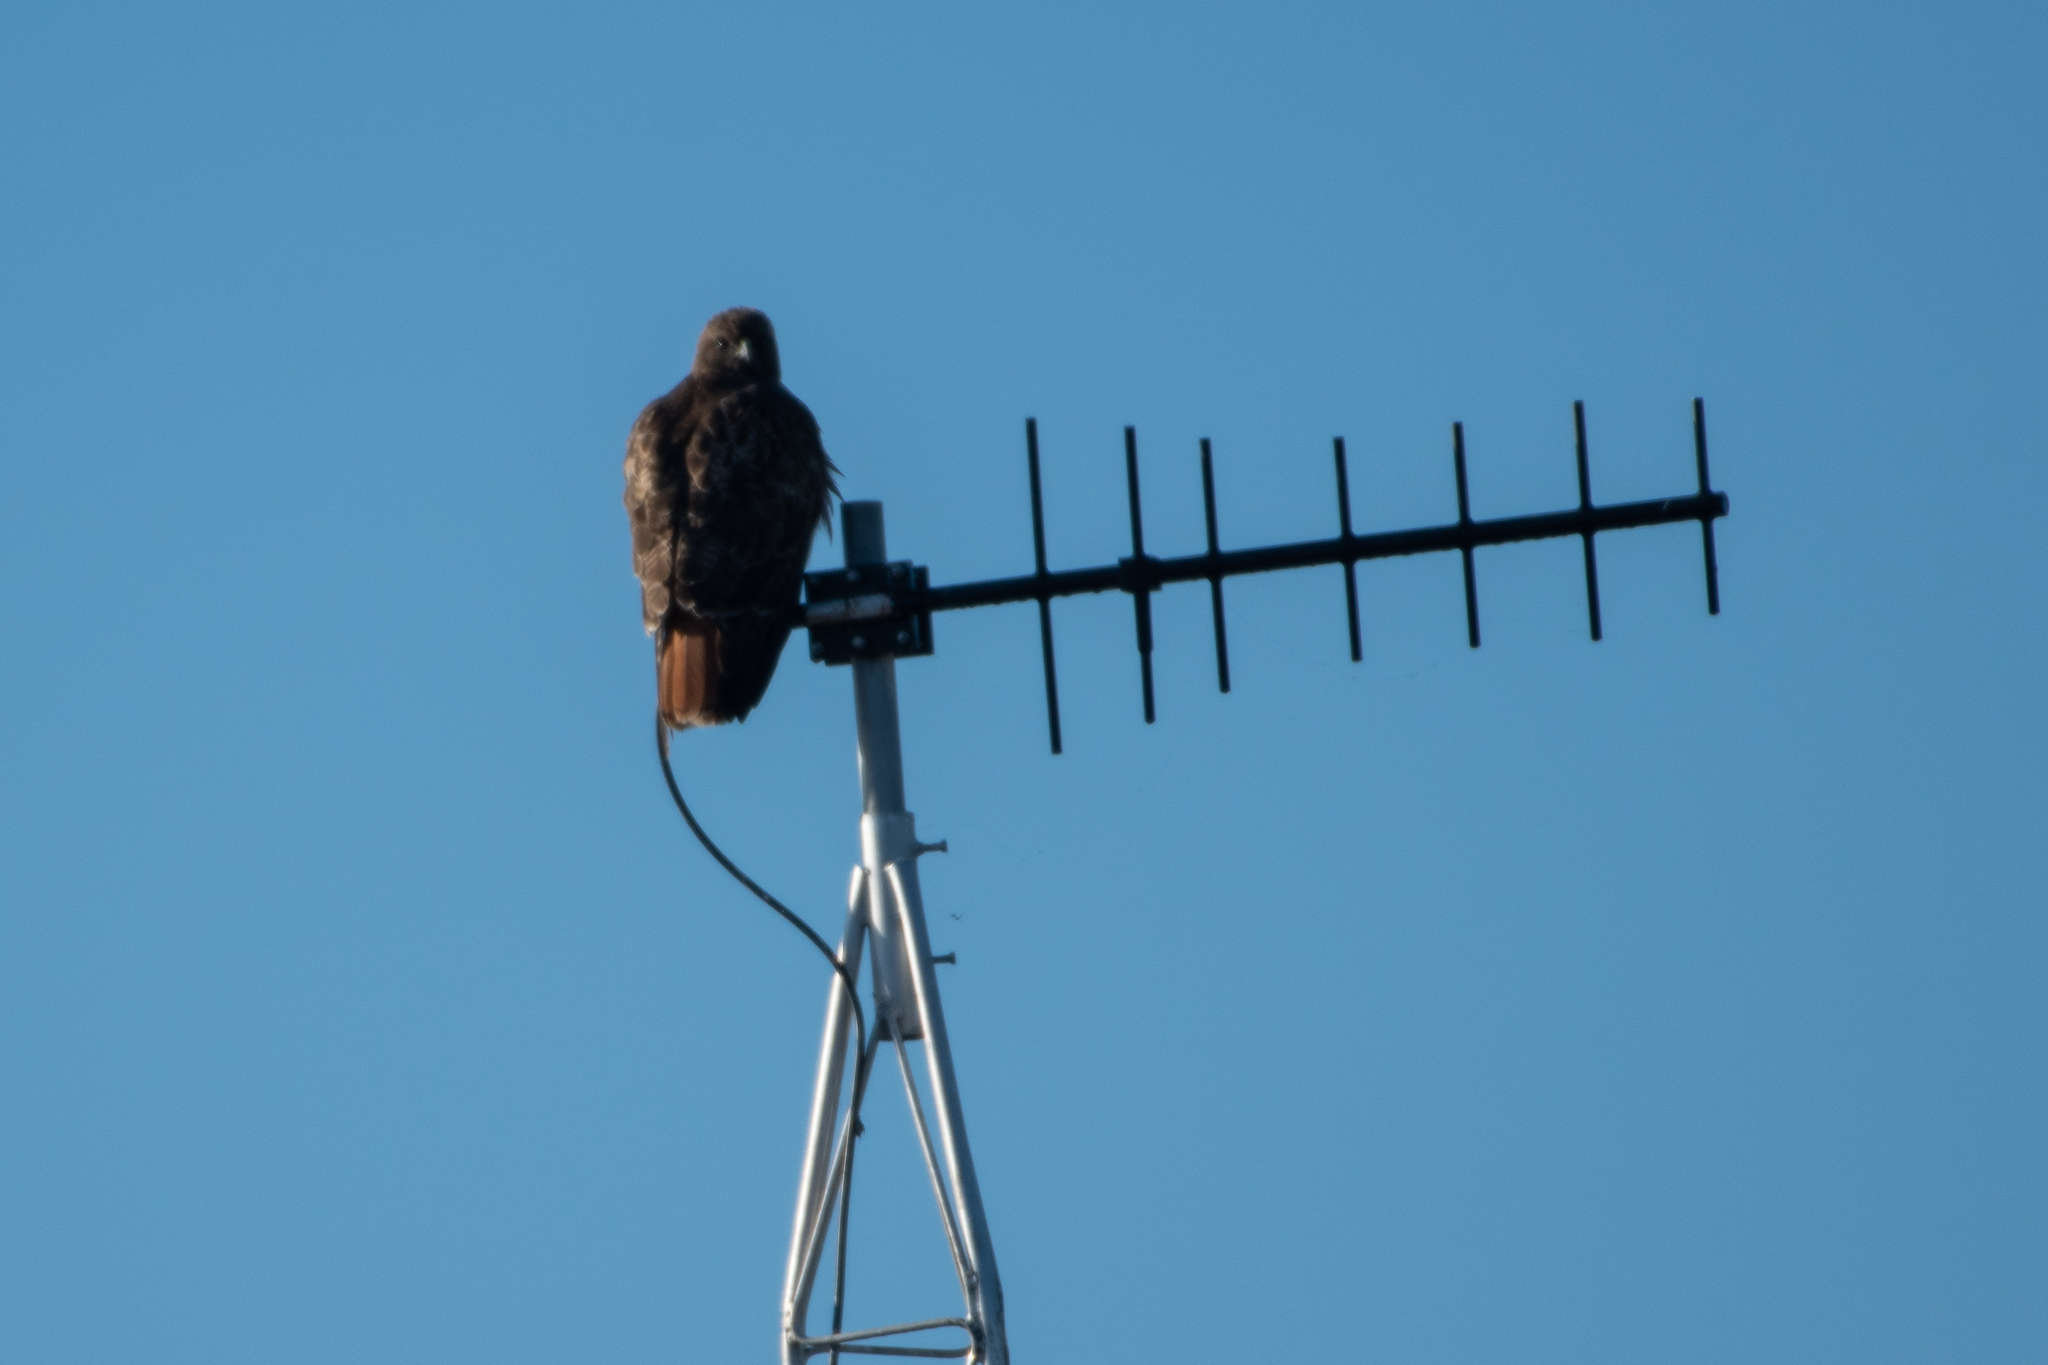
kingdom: Animalia
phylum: Chordata
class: Aves
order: Accipitriformes
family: Accipitridae
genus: Buteo
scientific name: Buteo jamaicensis
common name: Red-tailed hawk
